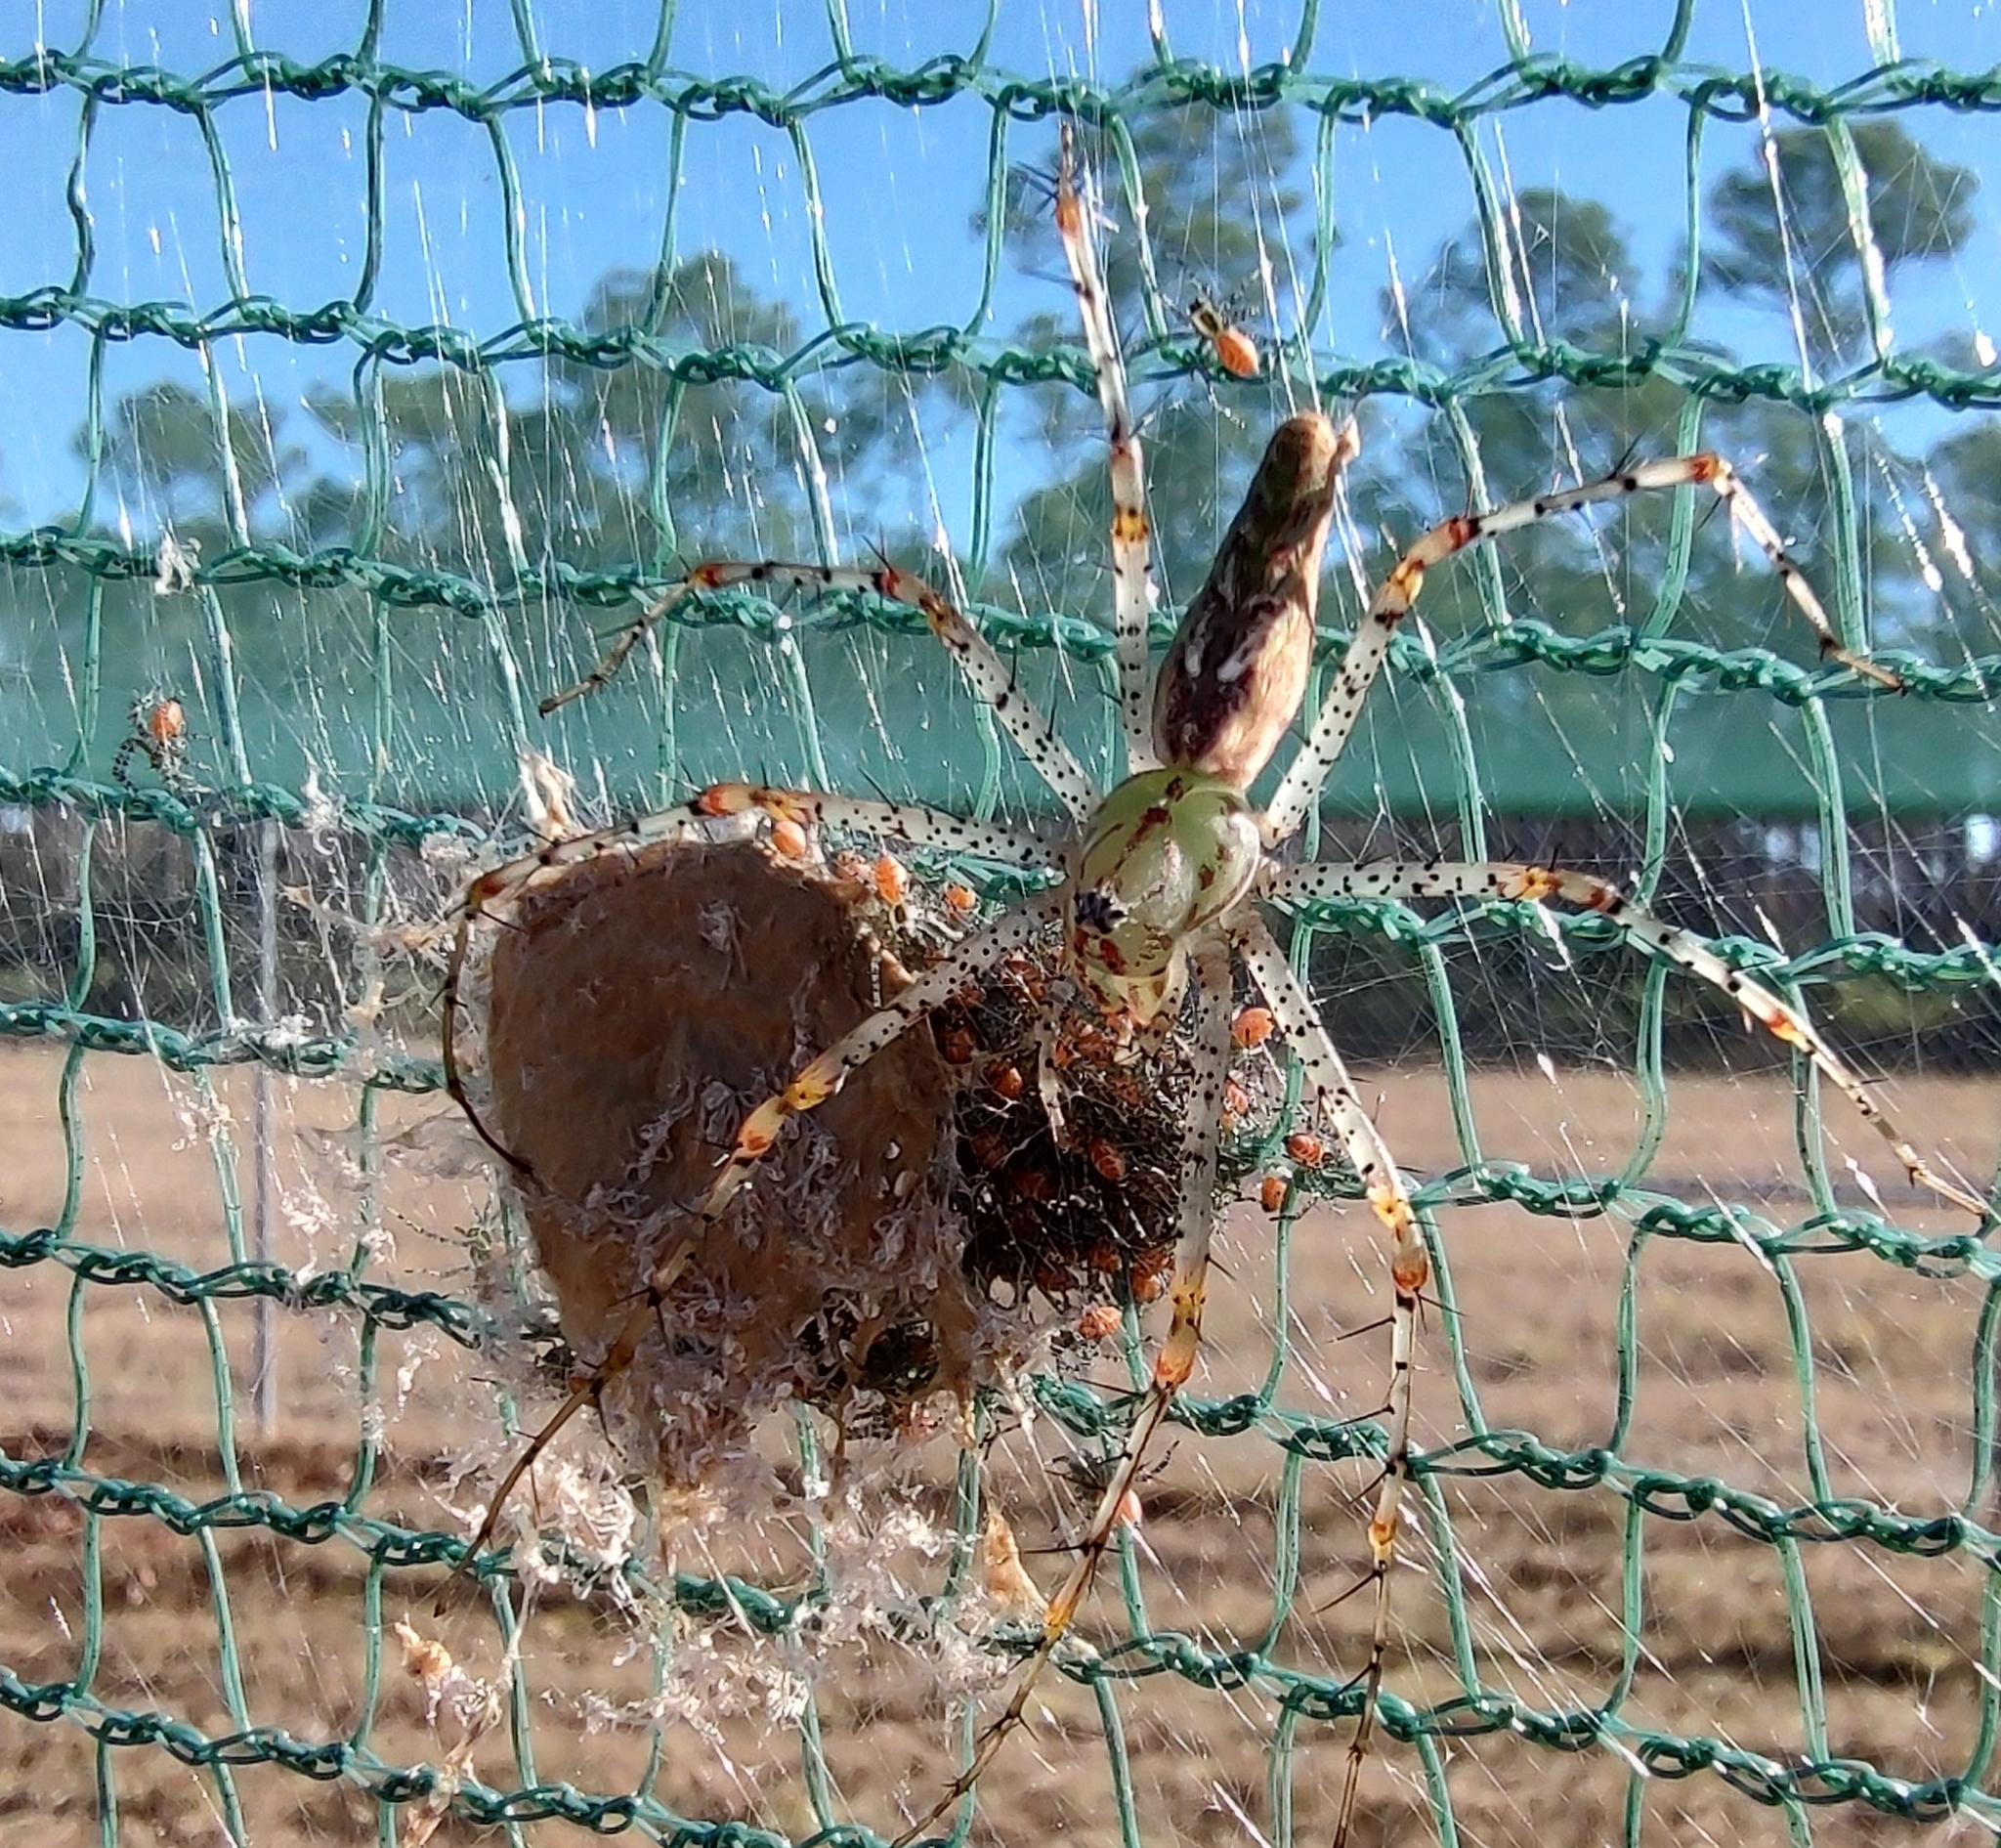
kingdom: Animalia
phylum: Arthropoda
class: Arachnida
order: Araneae
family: Oxyopidae
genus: Peucetia
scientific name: Peucetia viridans
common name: Lynx spiders
